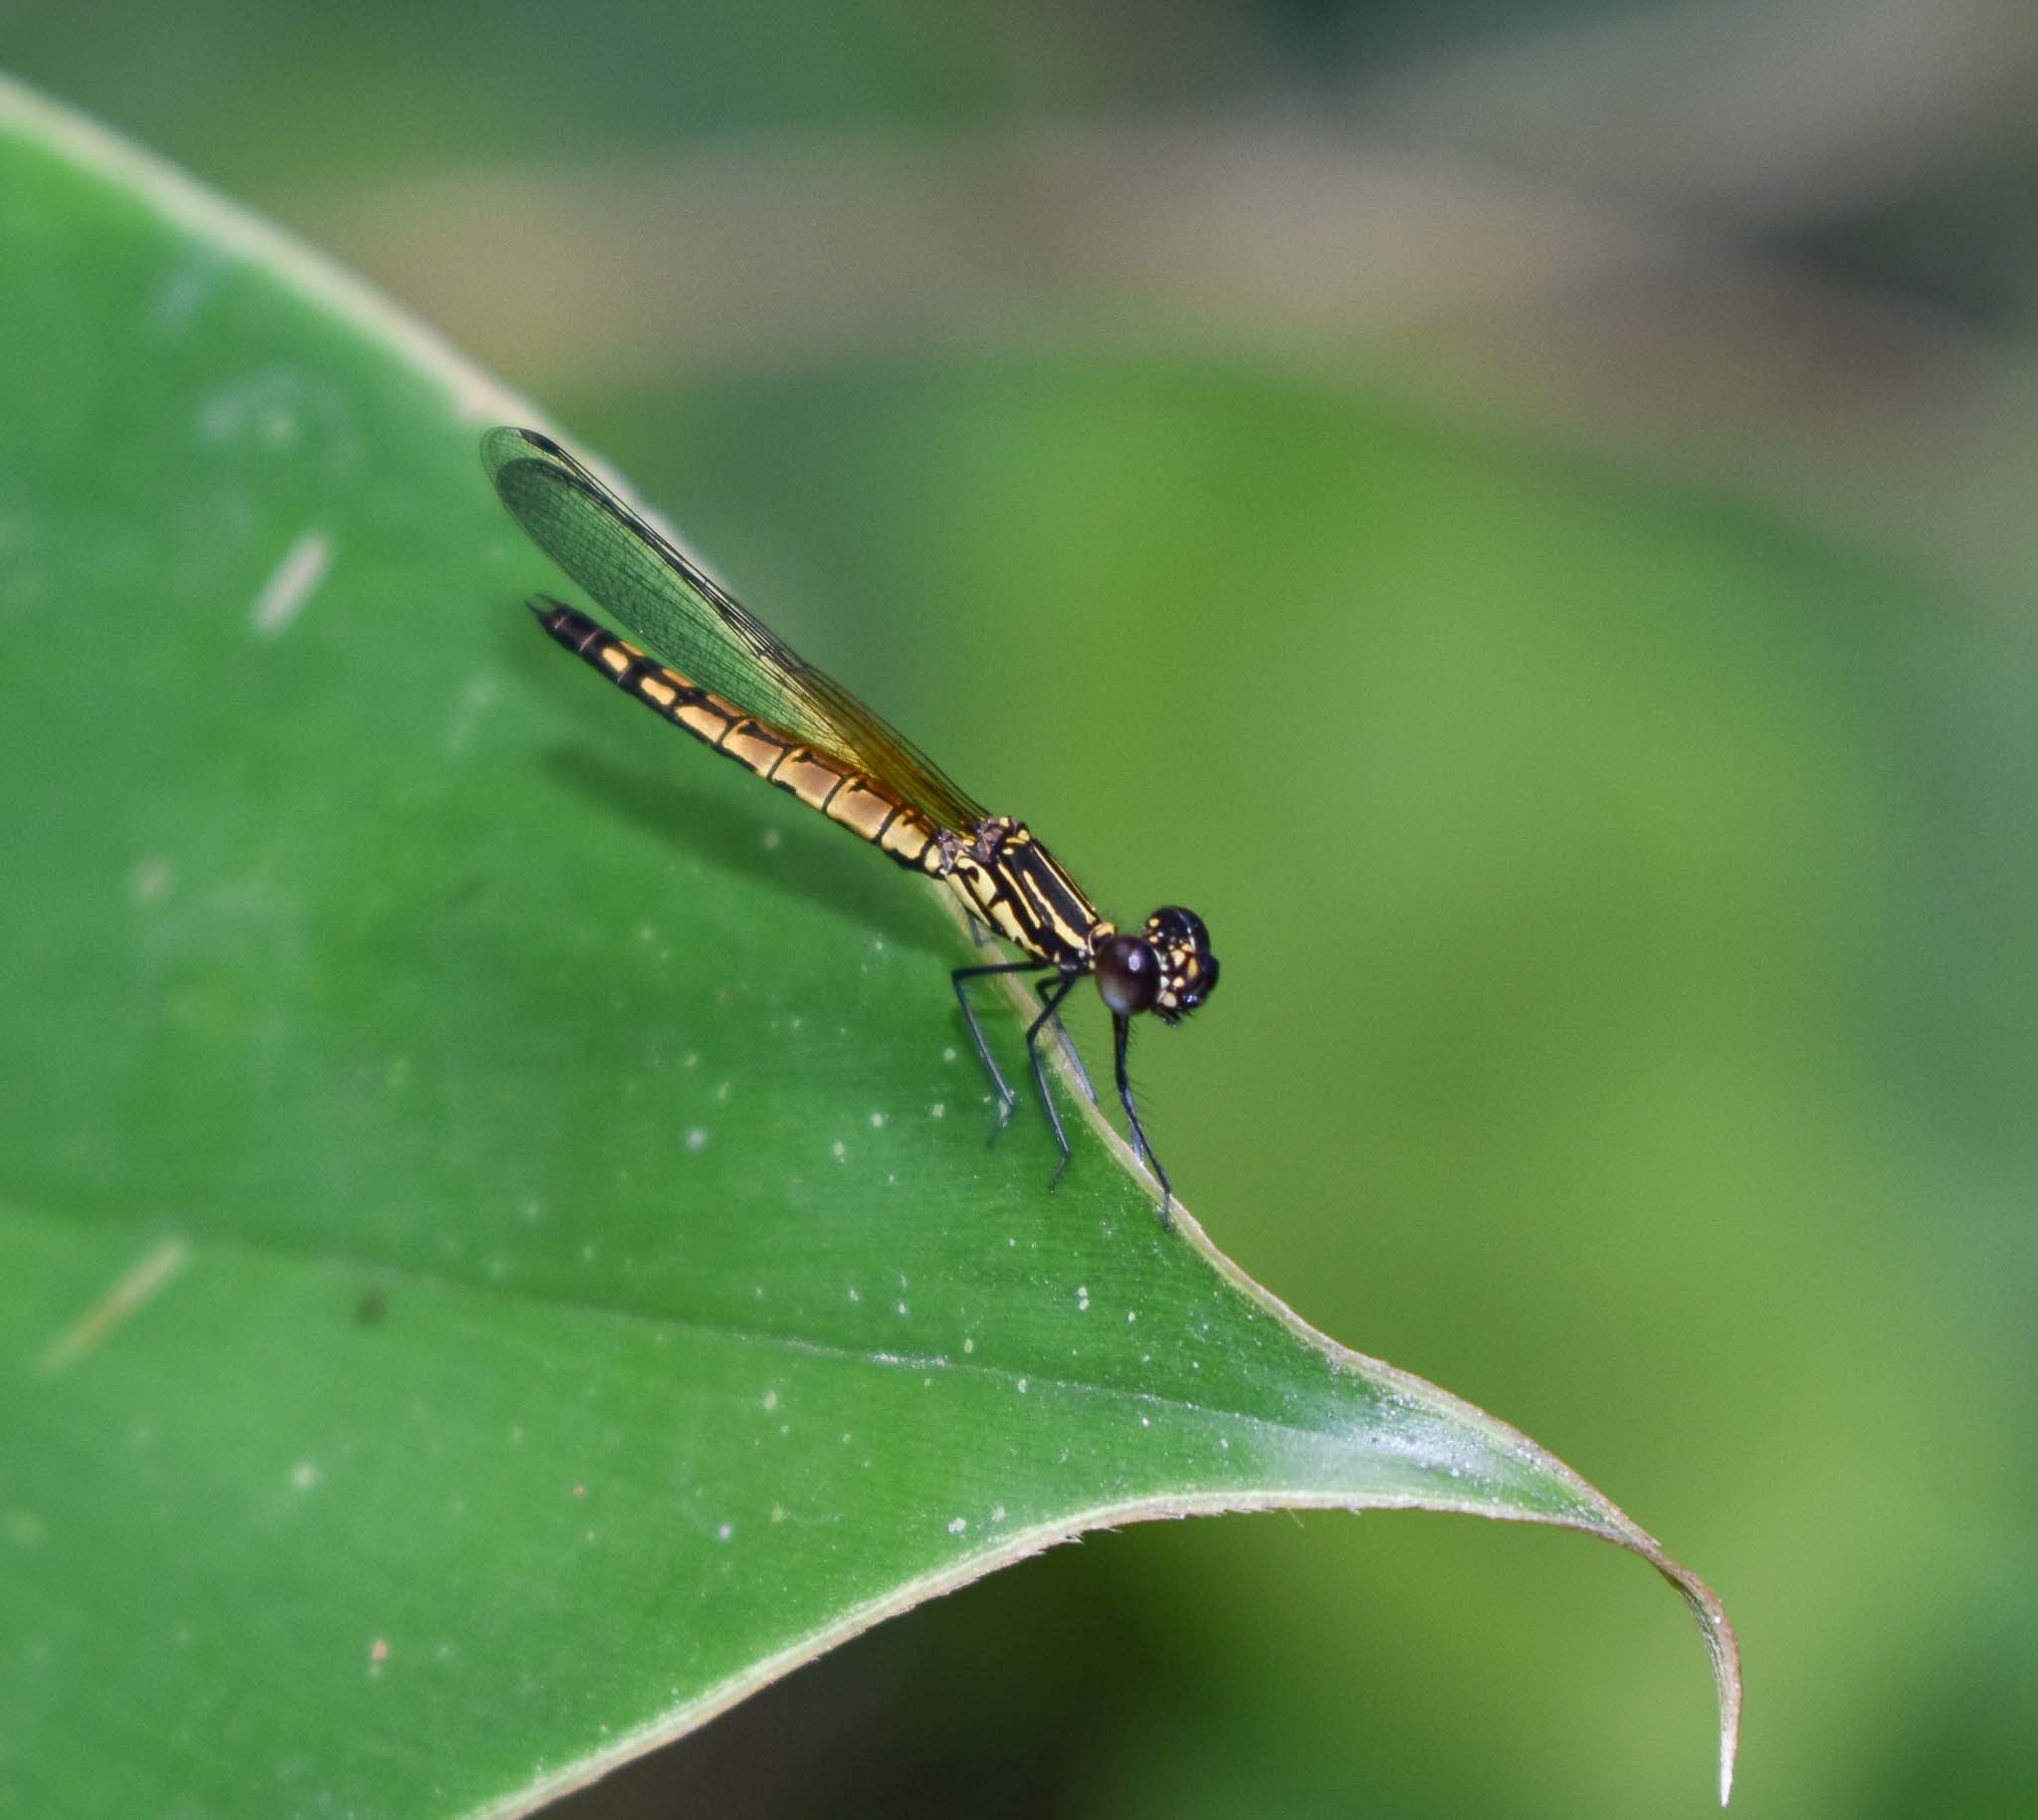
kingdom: Animalia
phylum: Arthropoda
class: Insecta
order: Odonata
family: Chlorocyphidae
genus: Libellago
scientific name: Libellago lineata
